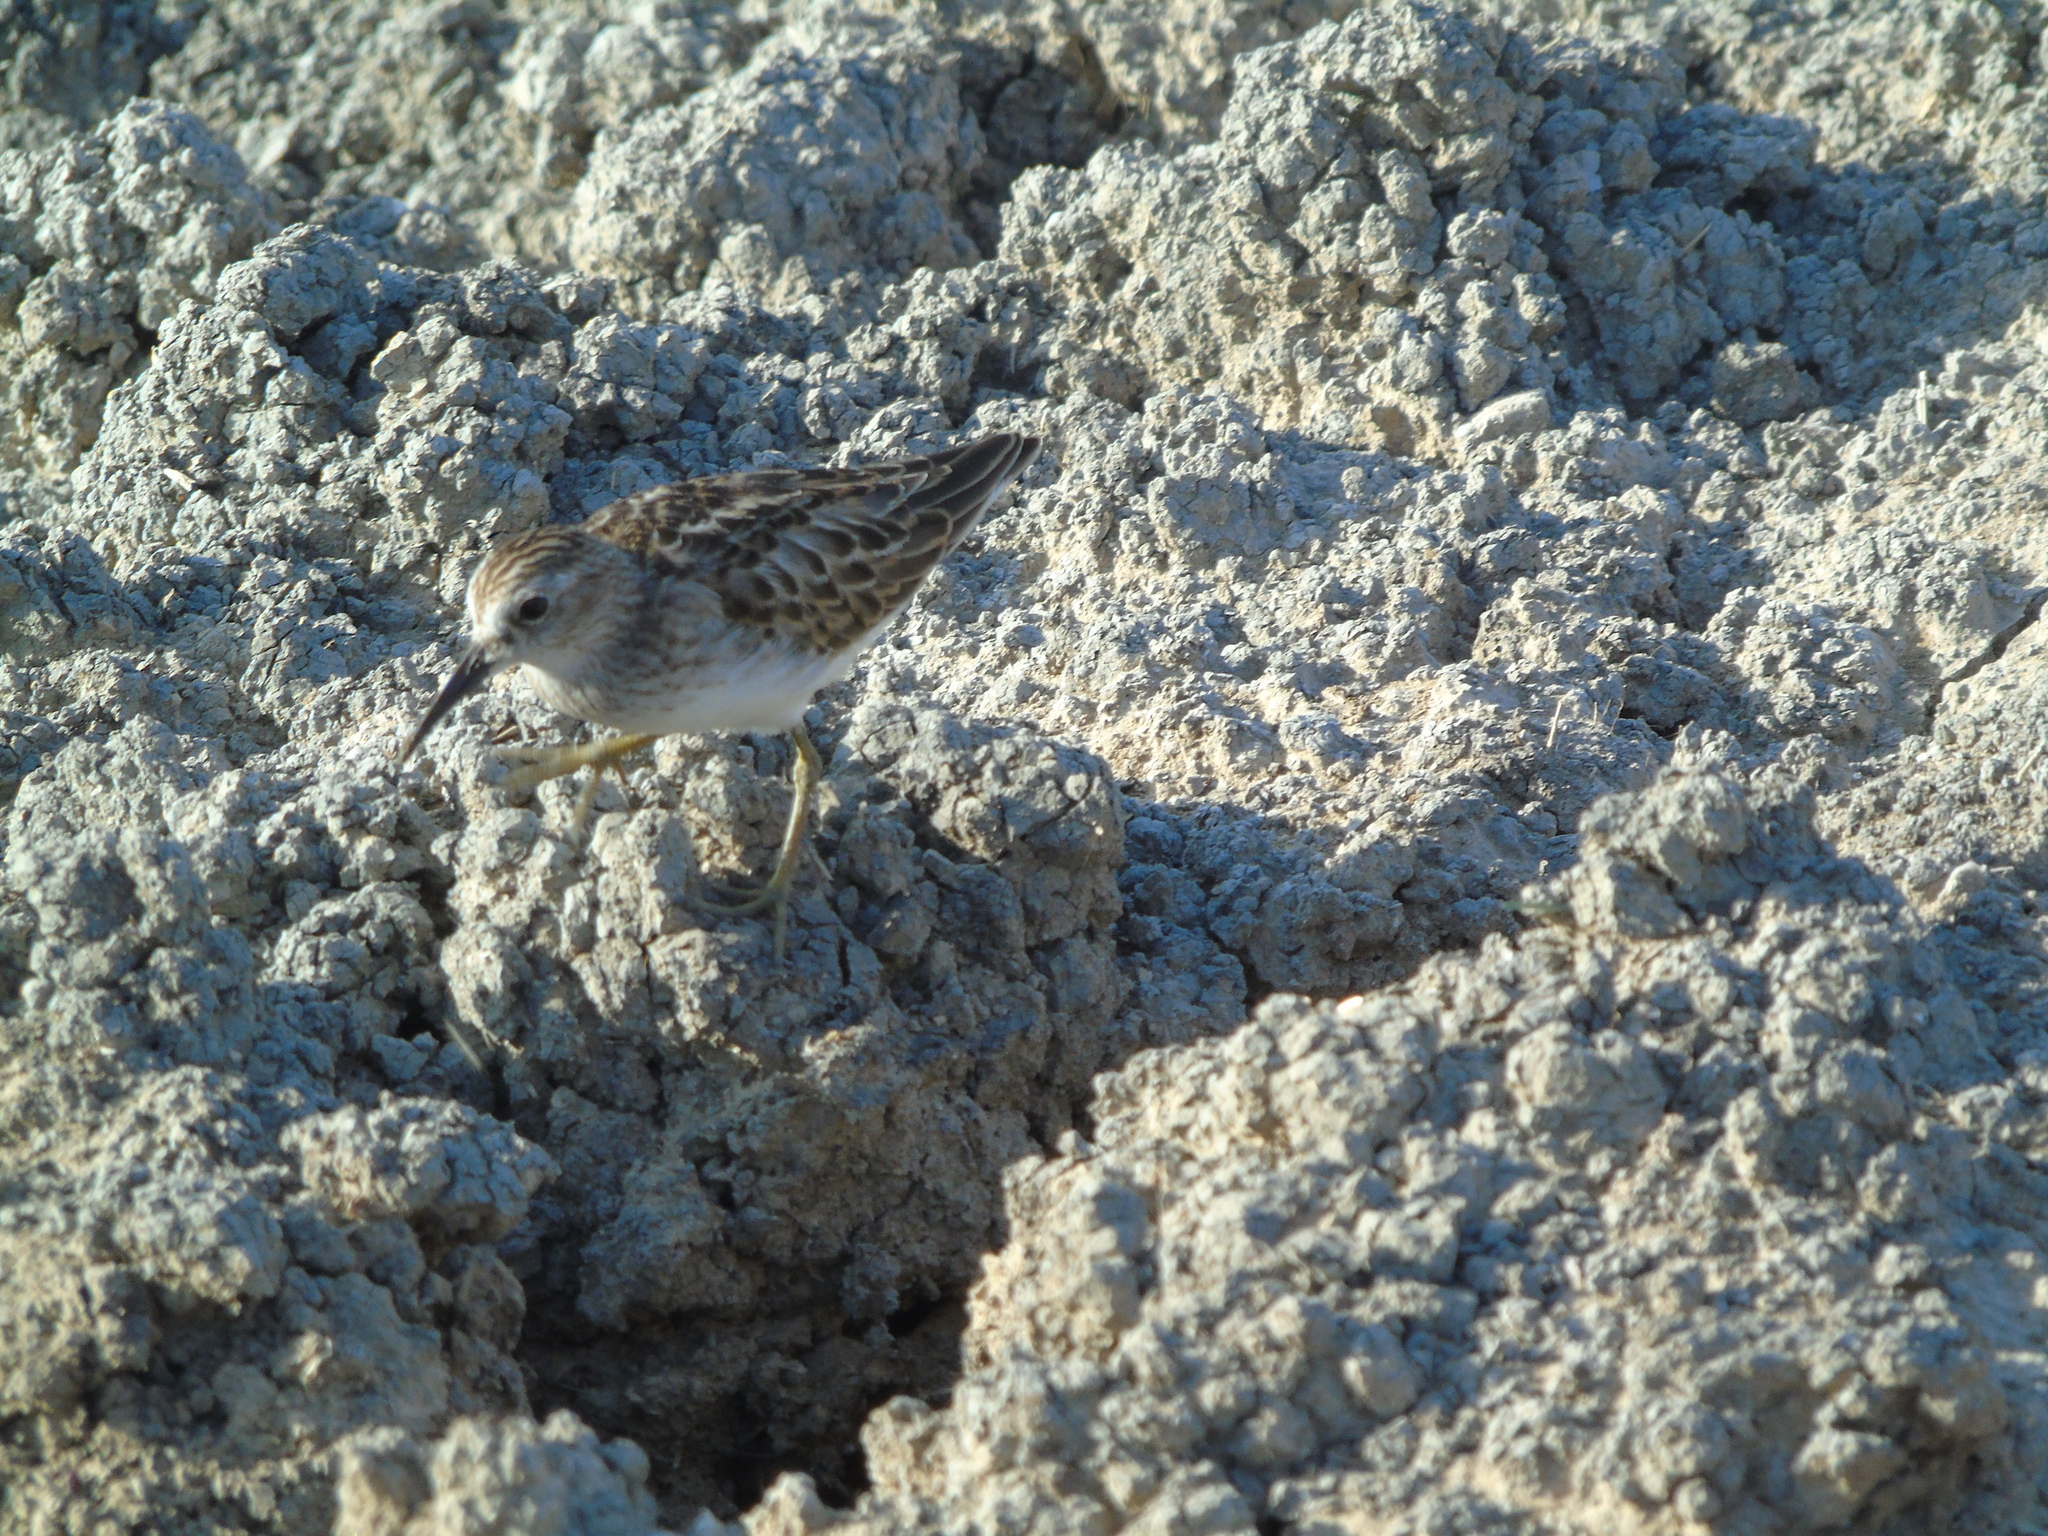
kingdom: Animalia
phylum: Chordata
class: Aves
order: Charadriiformes
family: Scolopacidae
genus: Calidris
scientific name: Calidris minutilla
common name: Least sandpiper
